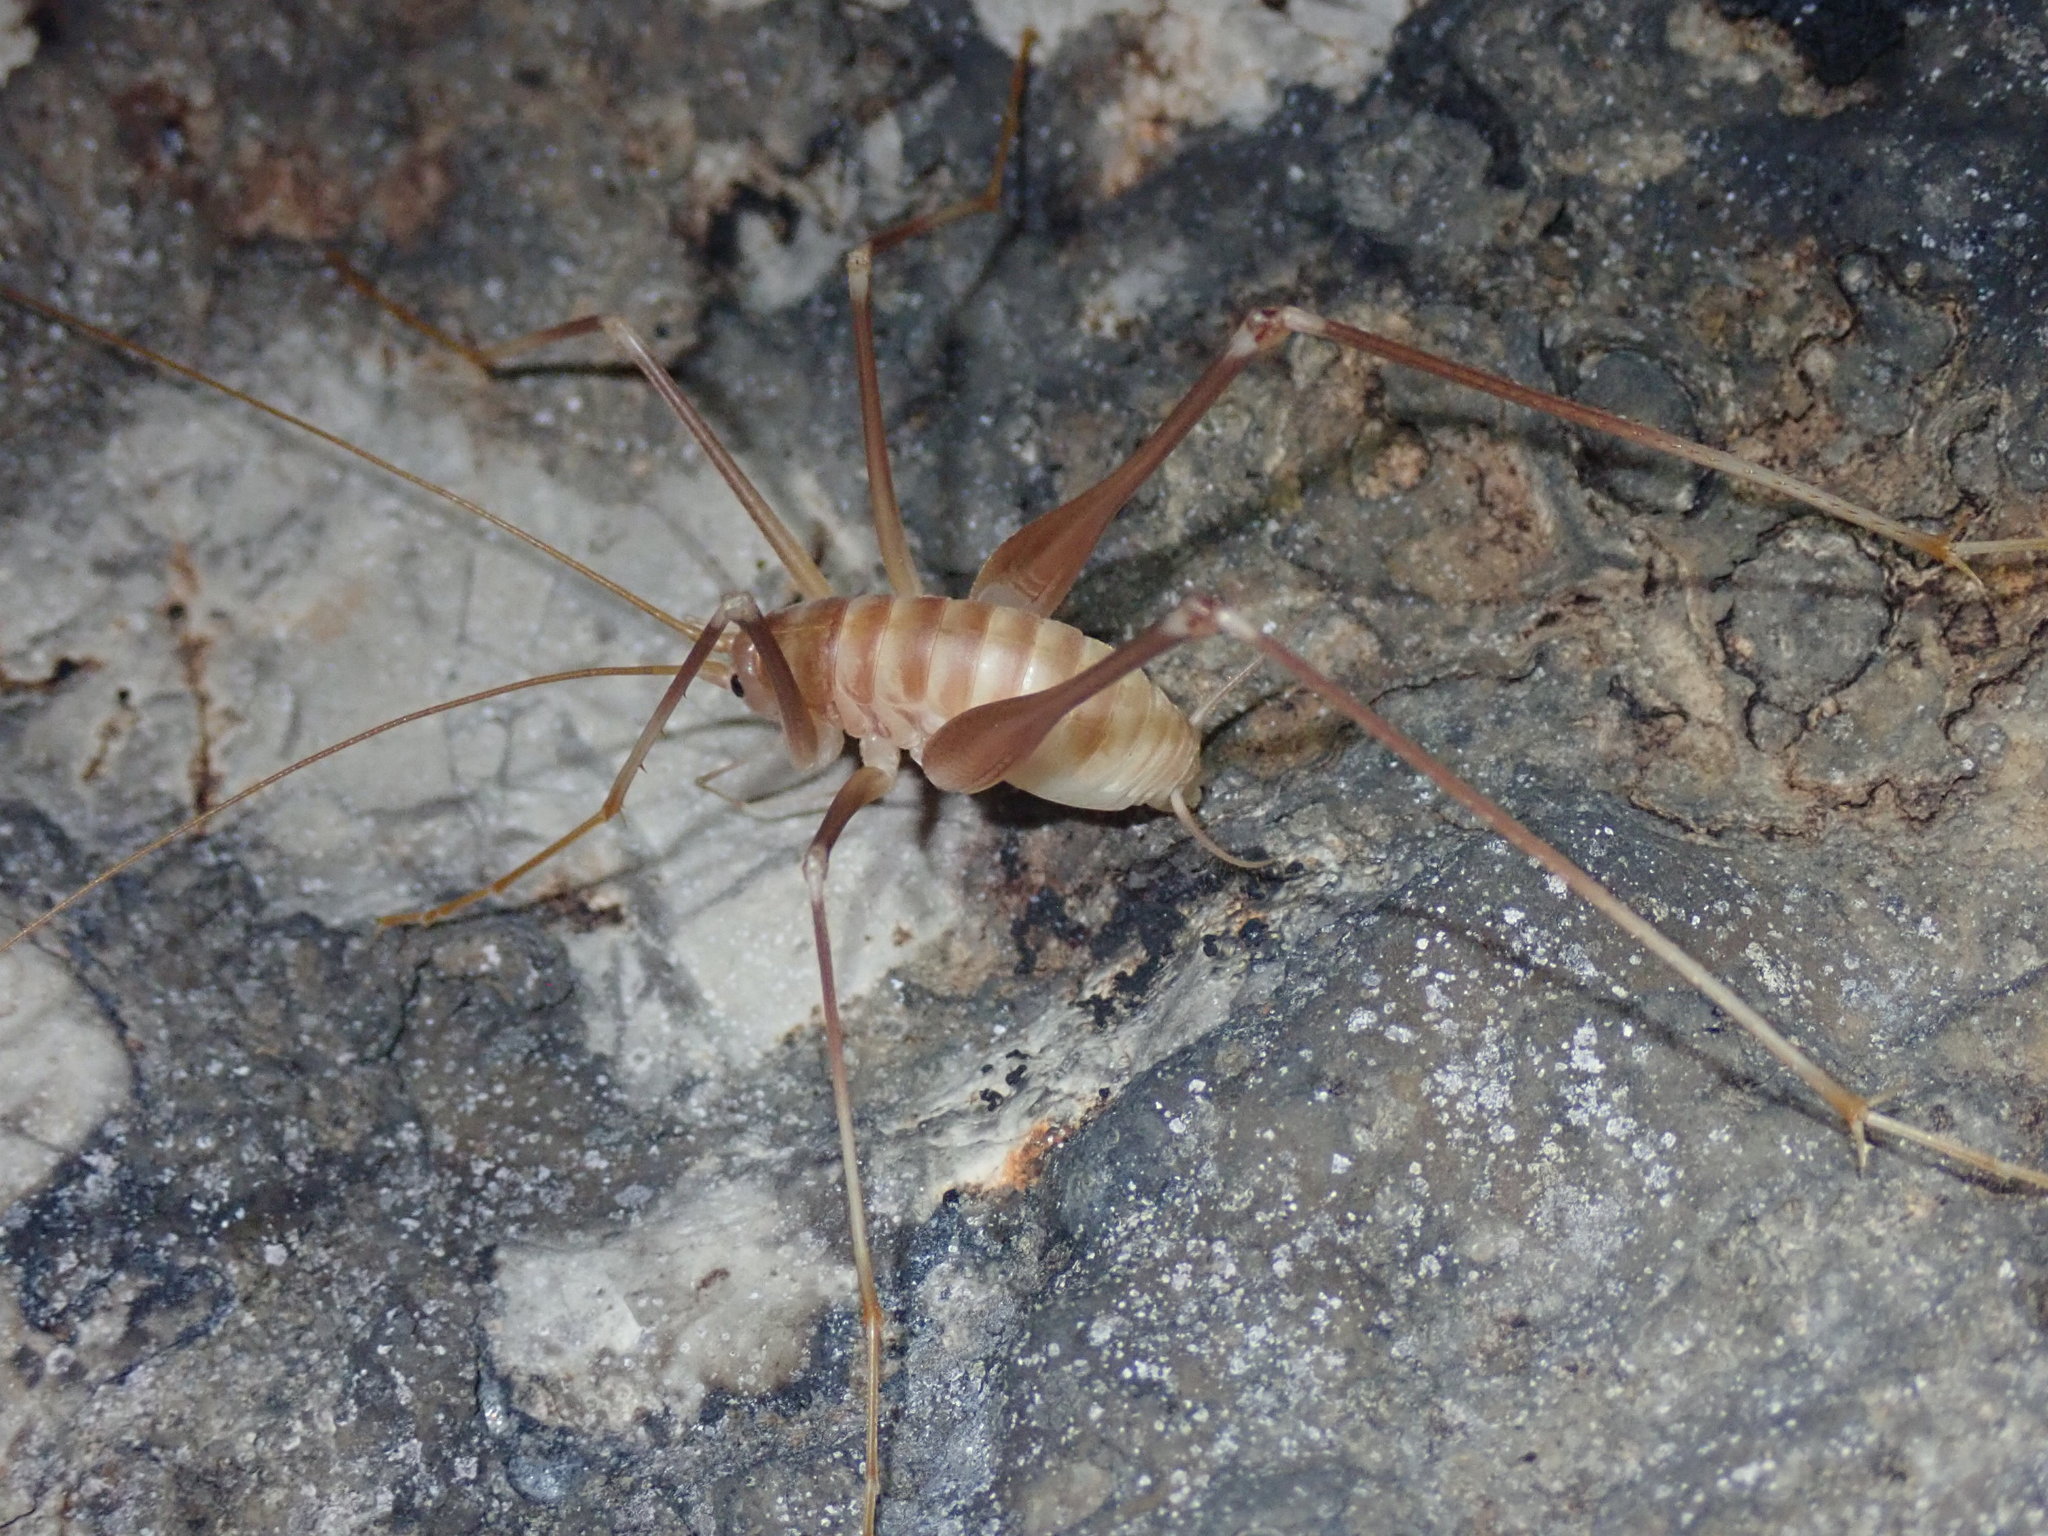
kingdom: Animalia
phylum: Arthropoda
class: Insecta
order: Orthoptera
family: Rhaphidophoridae
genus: Dolichopoda
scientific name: Dolichopoda araneiformis
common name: Spidery cave-cricket
